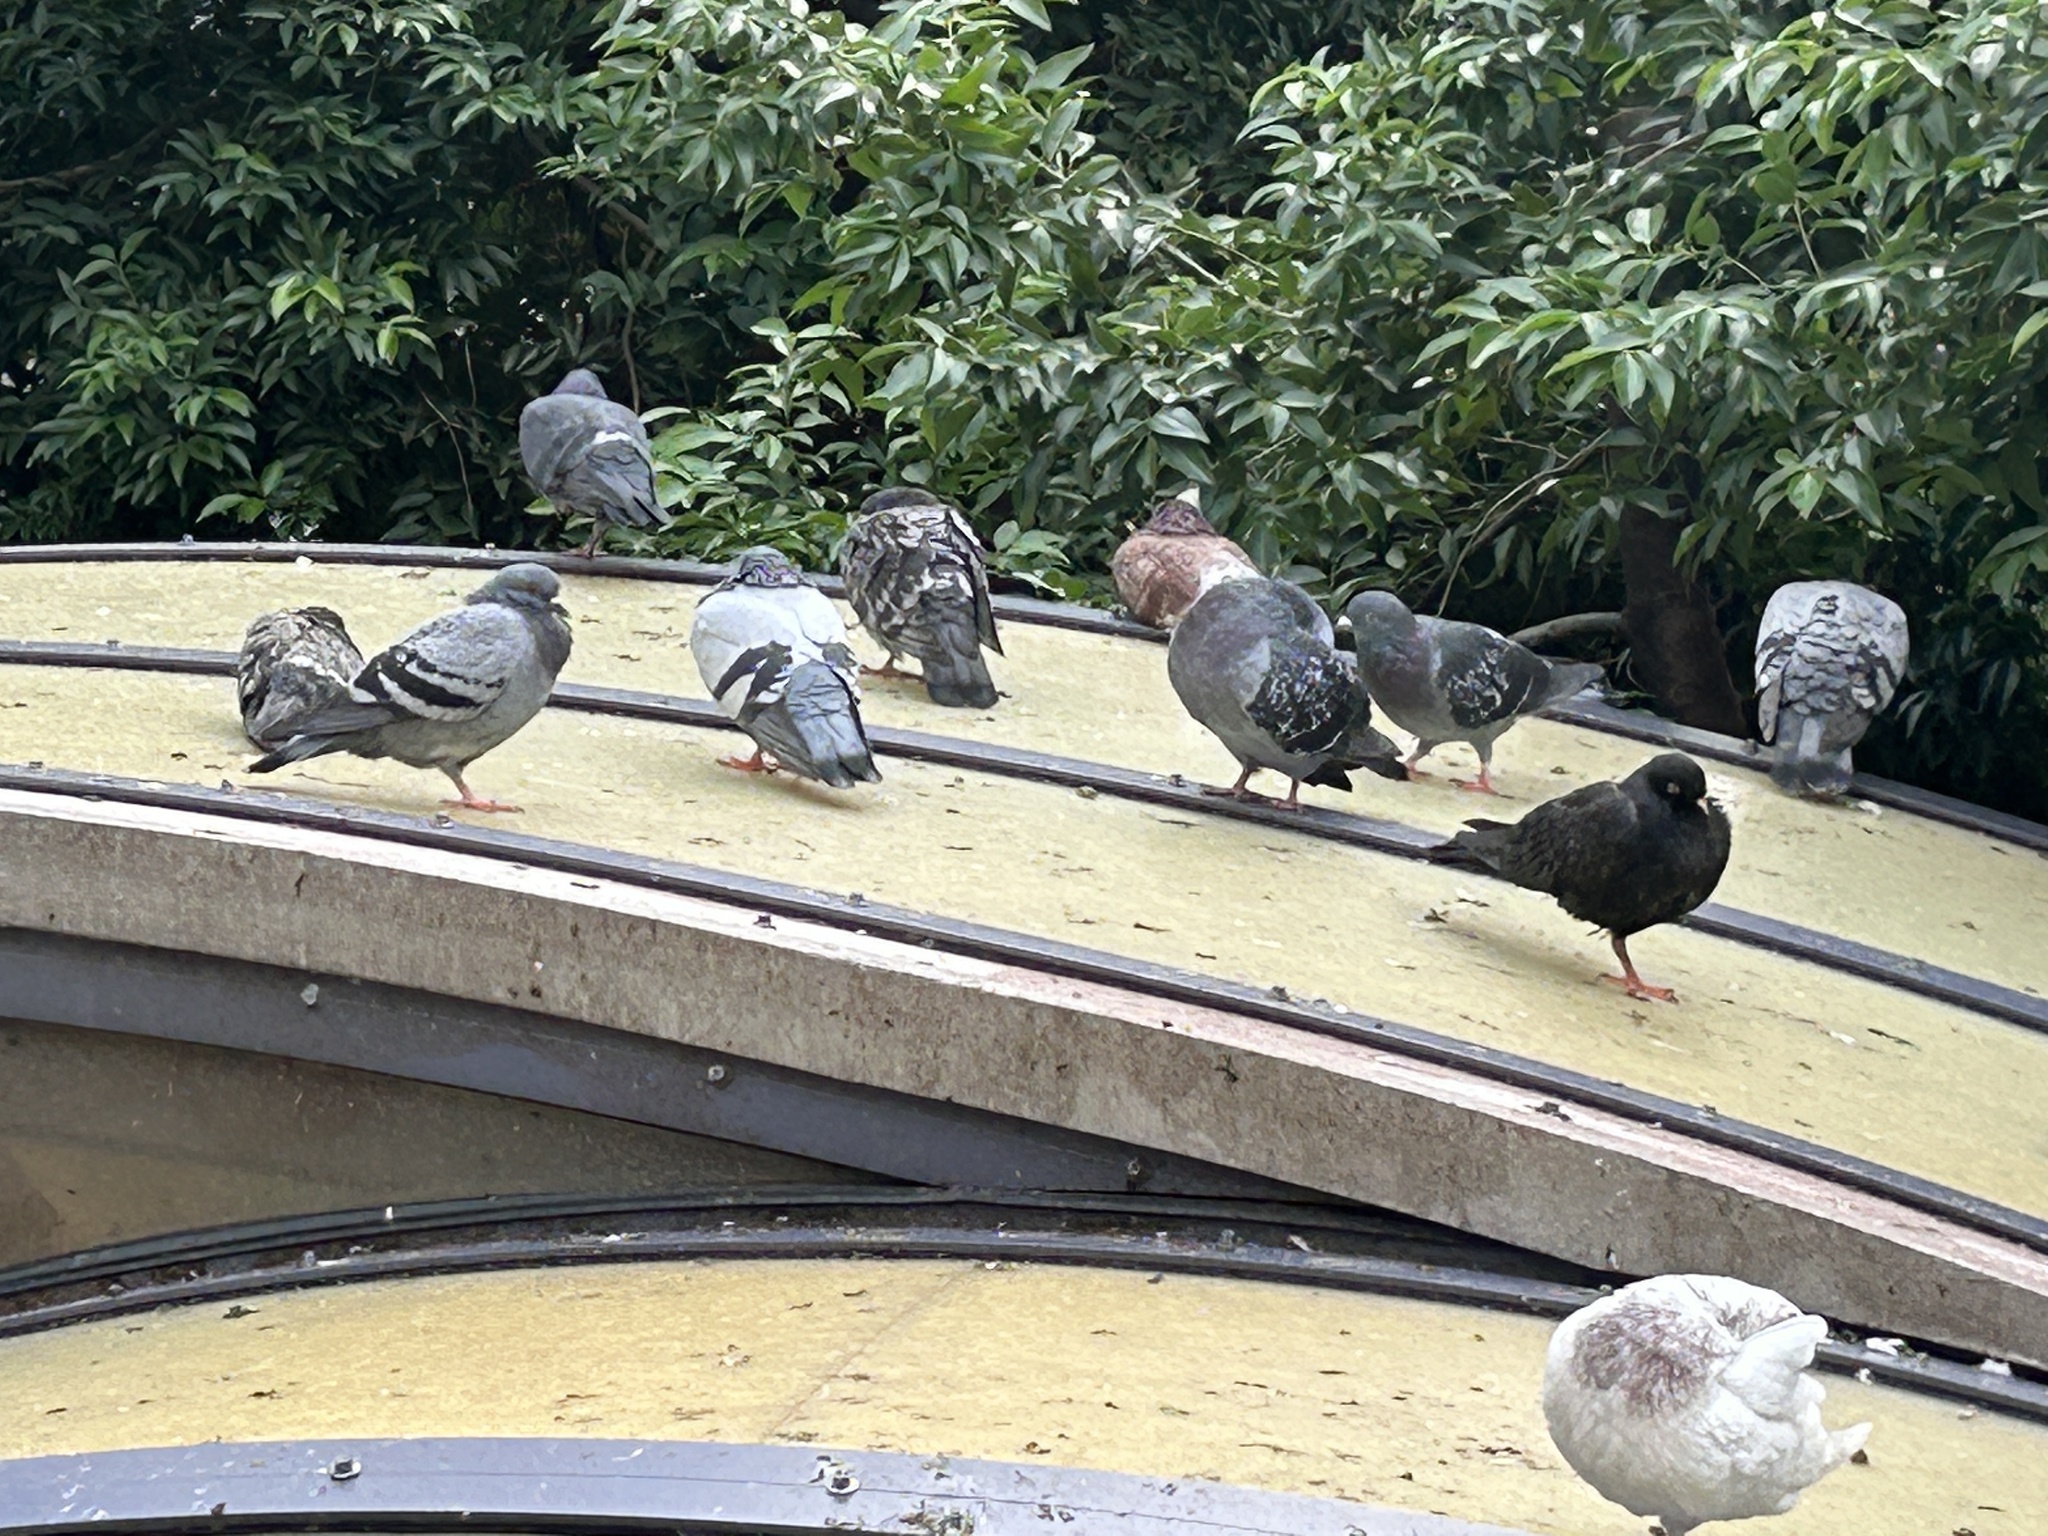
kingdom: Animalia
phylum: Chordata
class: Aves
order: Columbiformes
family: Columbidae
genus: Columba
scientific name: Columba livia
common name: Rock pigeon
